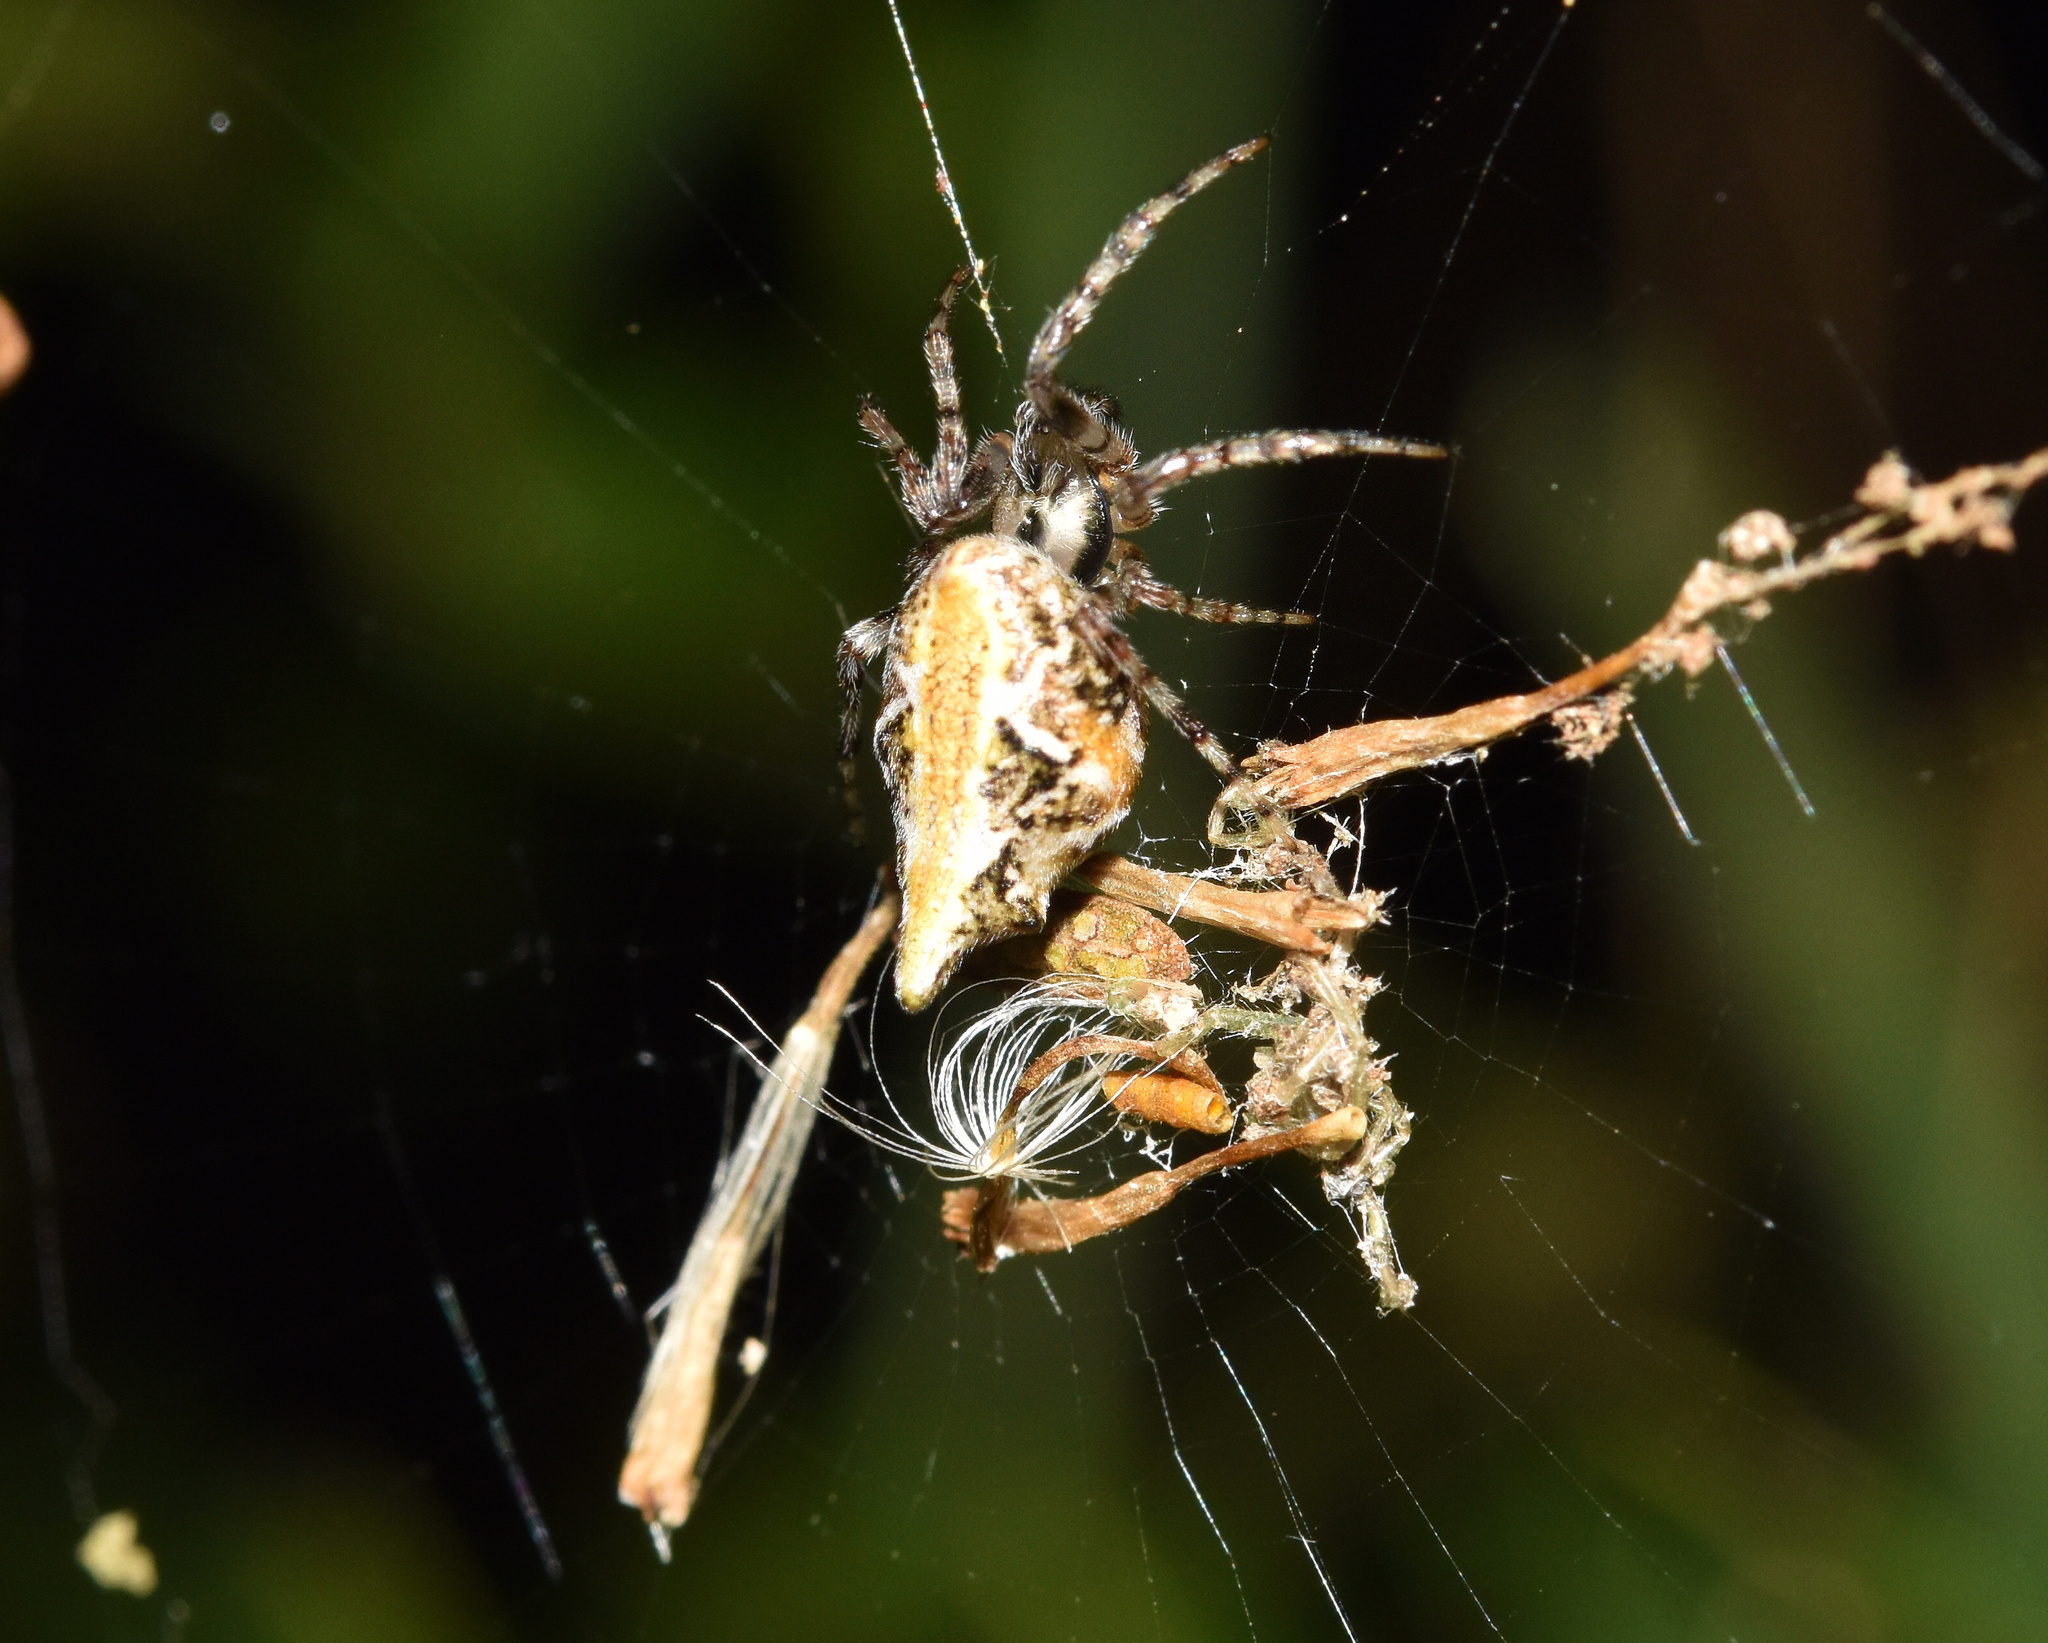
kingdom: Animalia
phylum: Arthropoda
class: Arachnida
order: Araneae
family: Araneidae
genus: Cyclosa
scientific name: Cyclosa insulana
